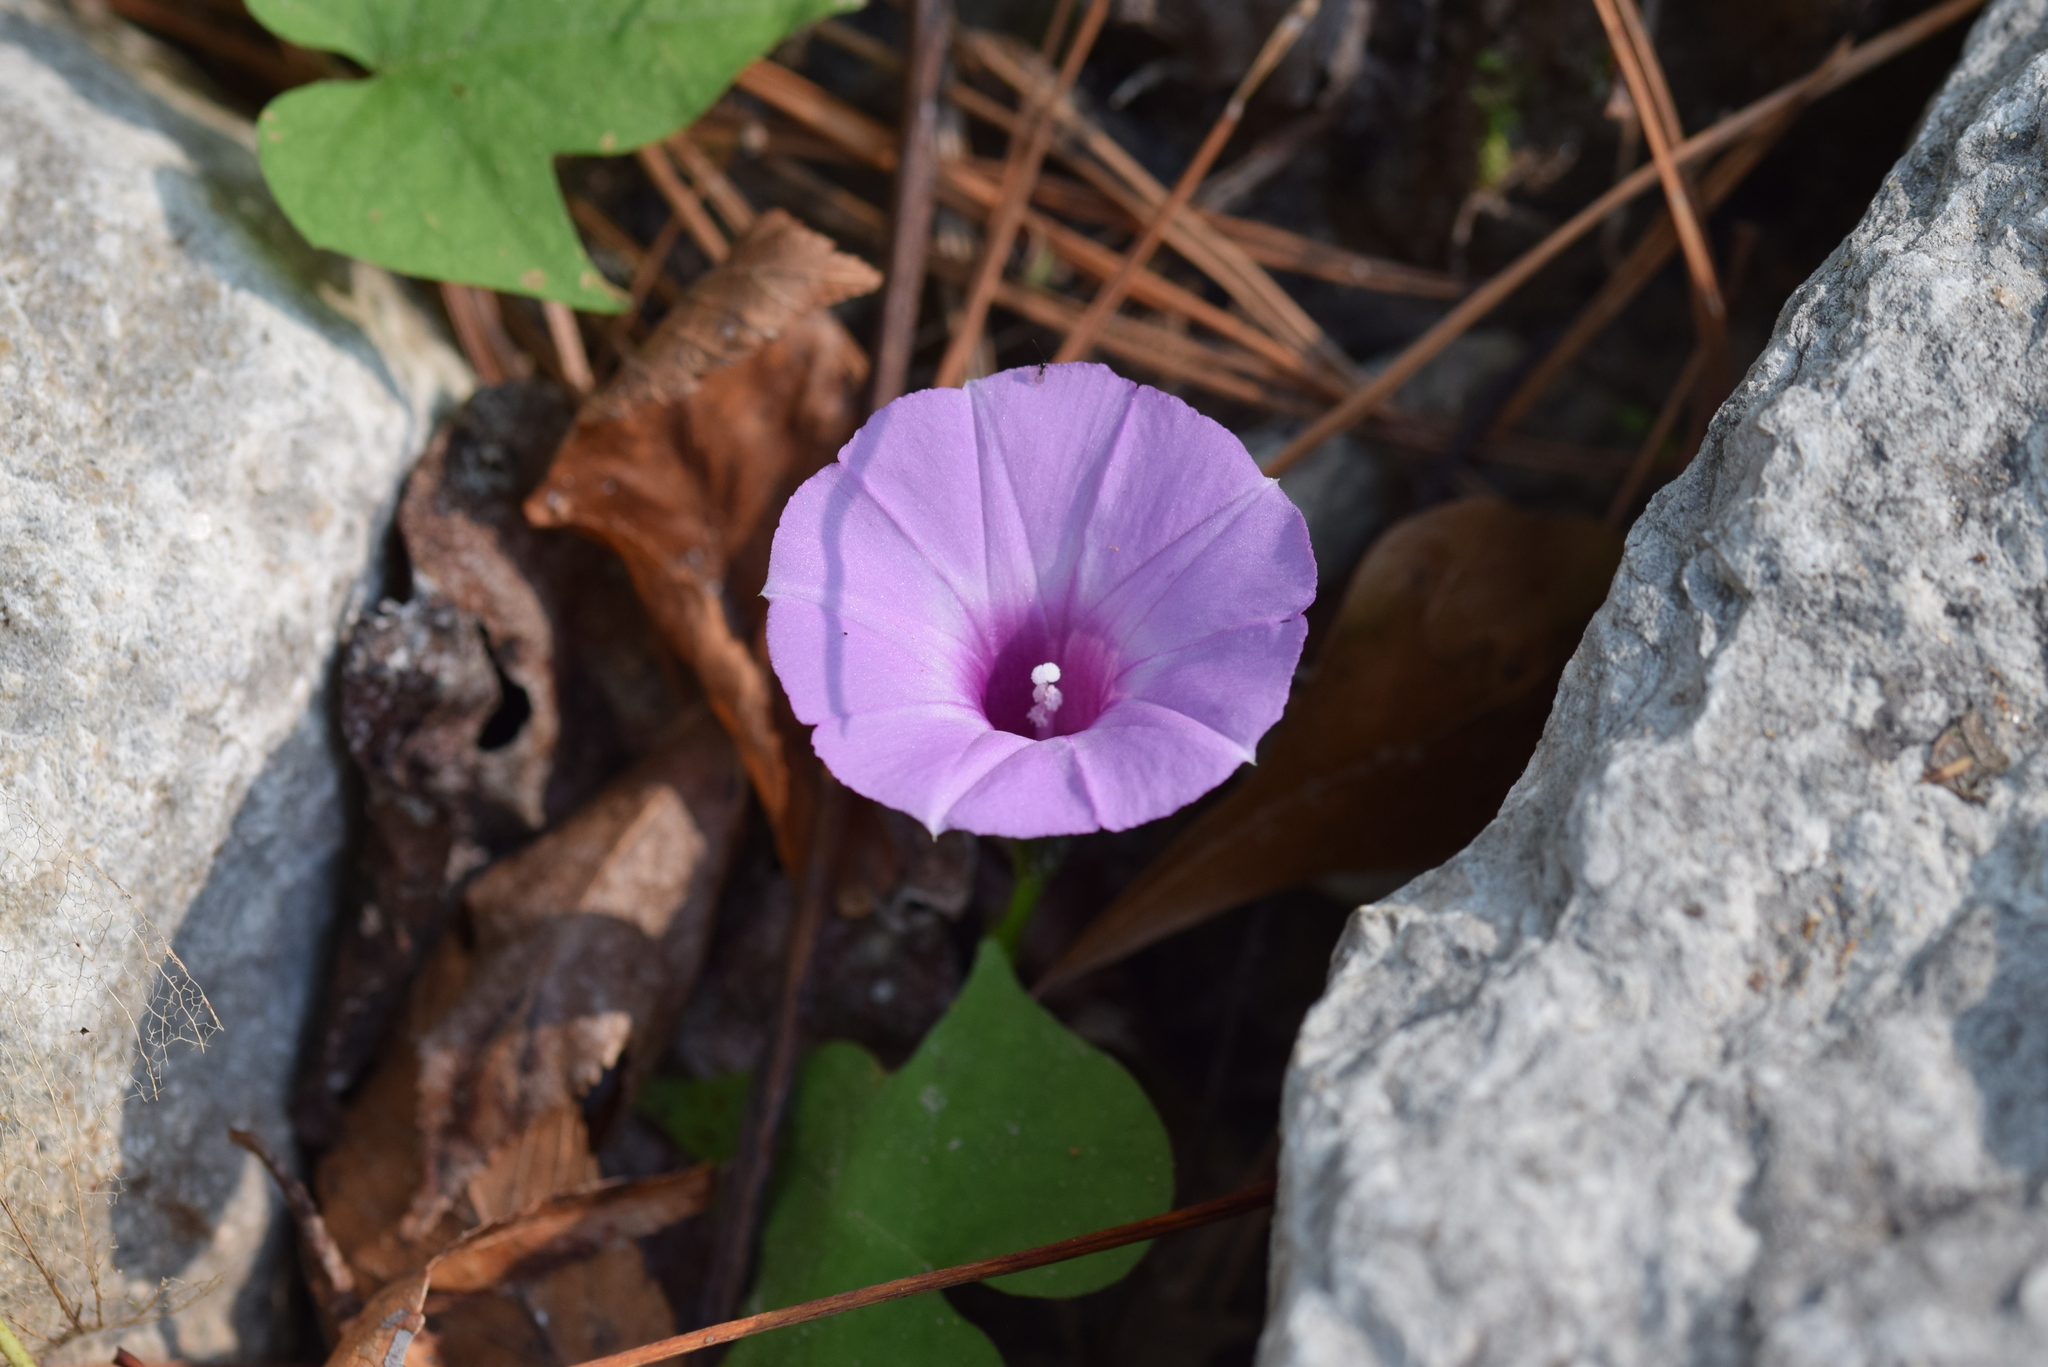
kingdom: Plantae
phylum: Tracheophyta
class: Magnoliopsida
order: Solanales
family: Convolvulaceae
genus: Ipomoea
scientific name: Ipomoea cordatotriloba
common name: Cotton morning glory
